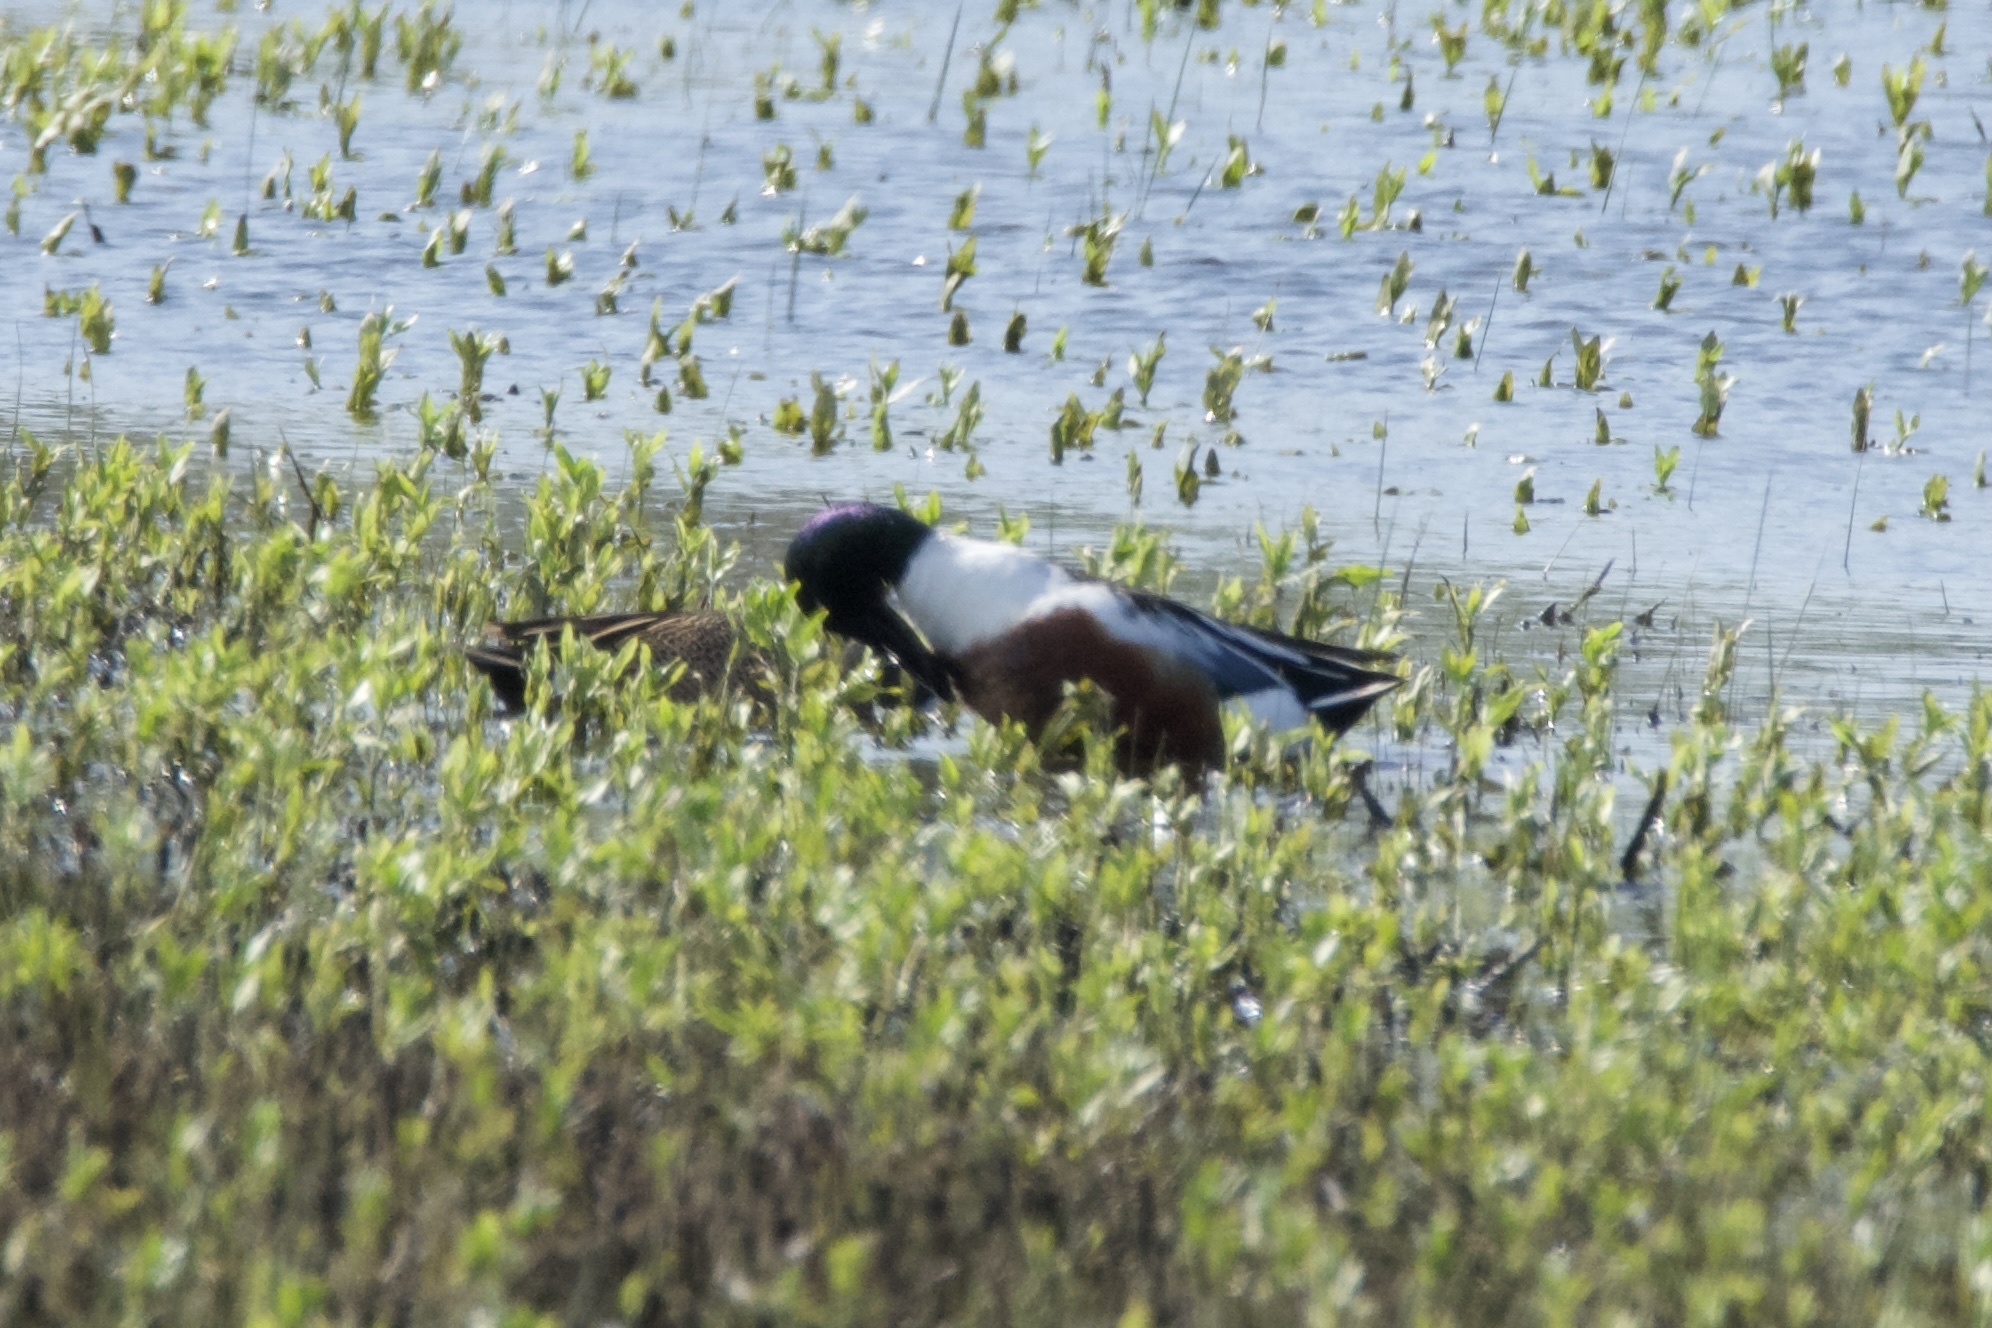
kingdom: Animalia
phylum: Chordata
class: Aves
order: Anseriformes
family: Anatidae
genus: Spatula
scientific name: Spatula clypeata
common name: Northern shoveler
